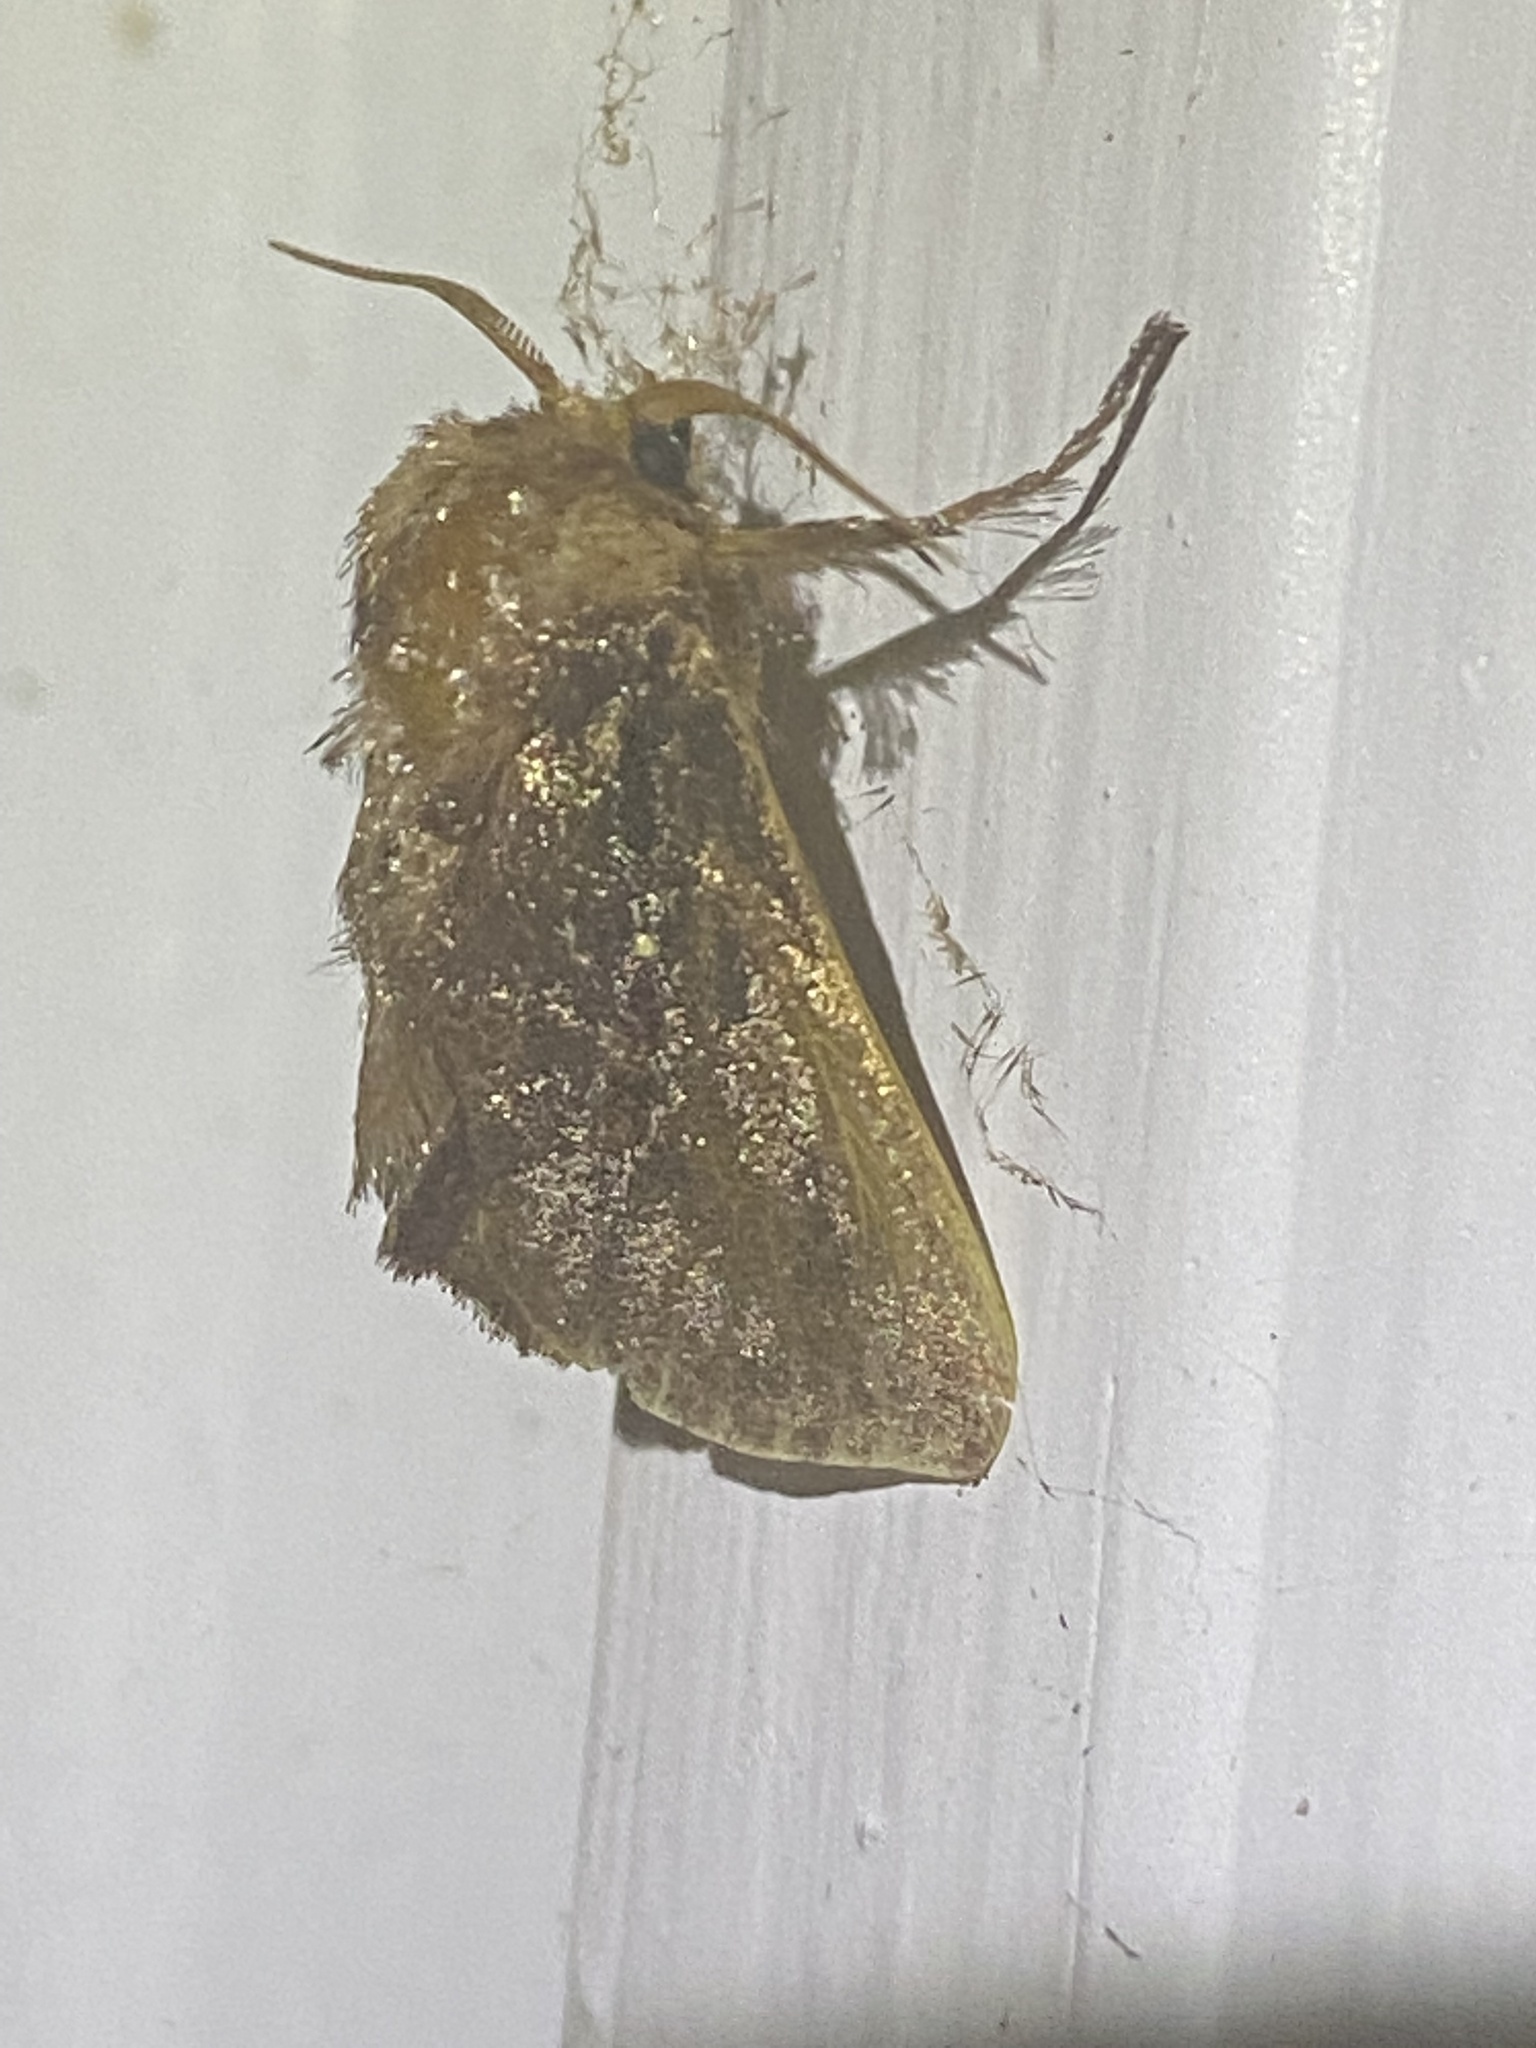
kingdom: Animalia
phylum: Arthropoda
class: Insecta
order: Lepidoptera
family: Limacodidae
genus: Acharia
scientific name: Acharia stimulea
